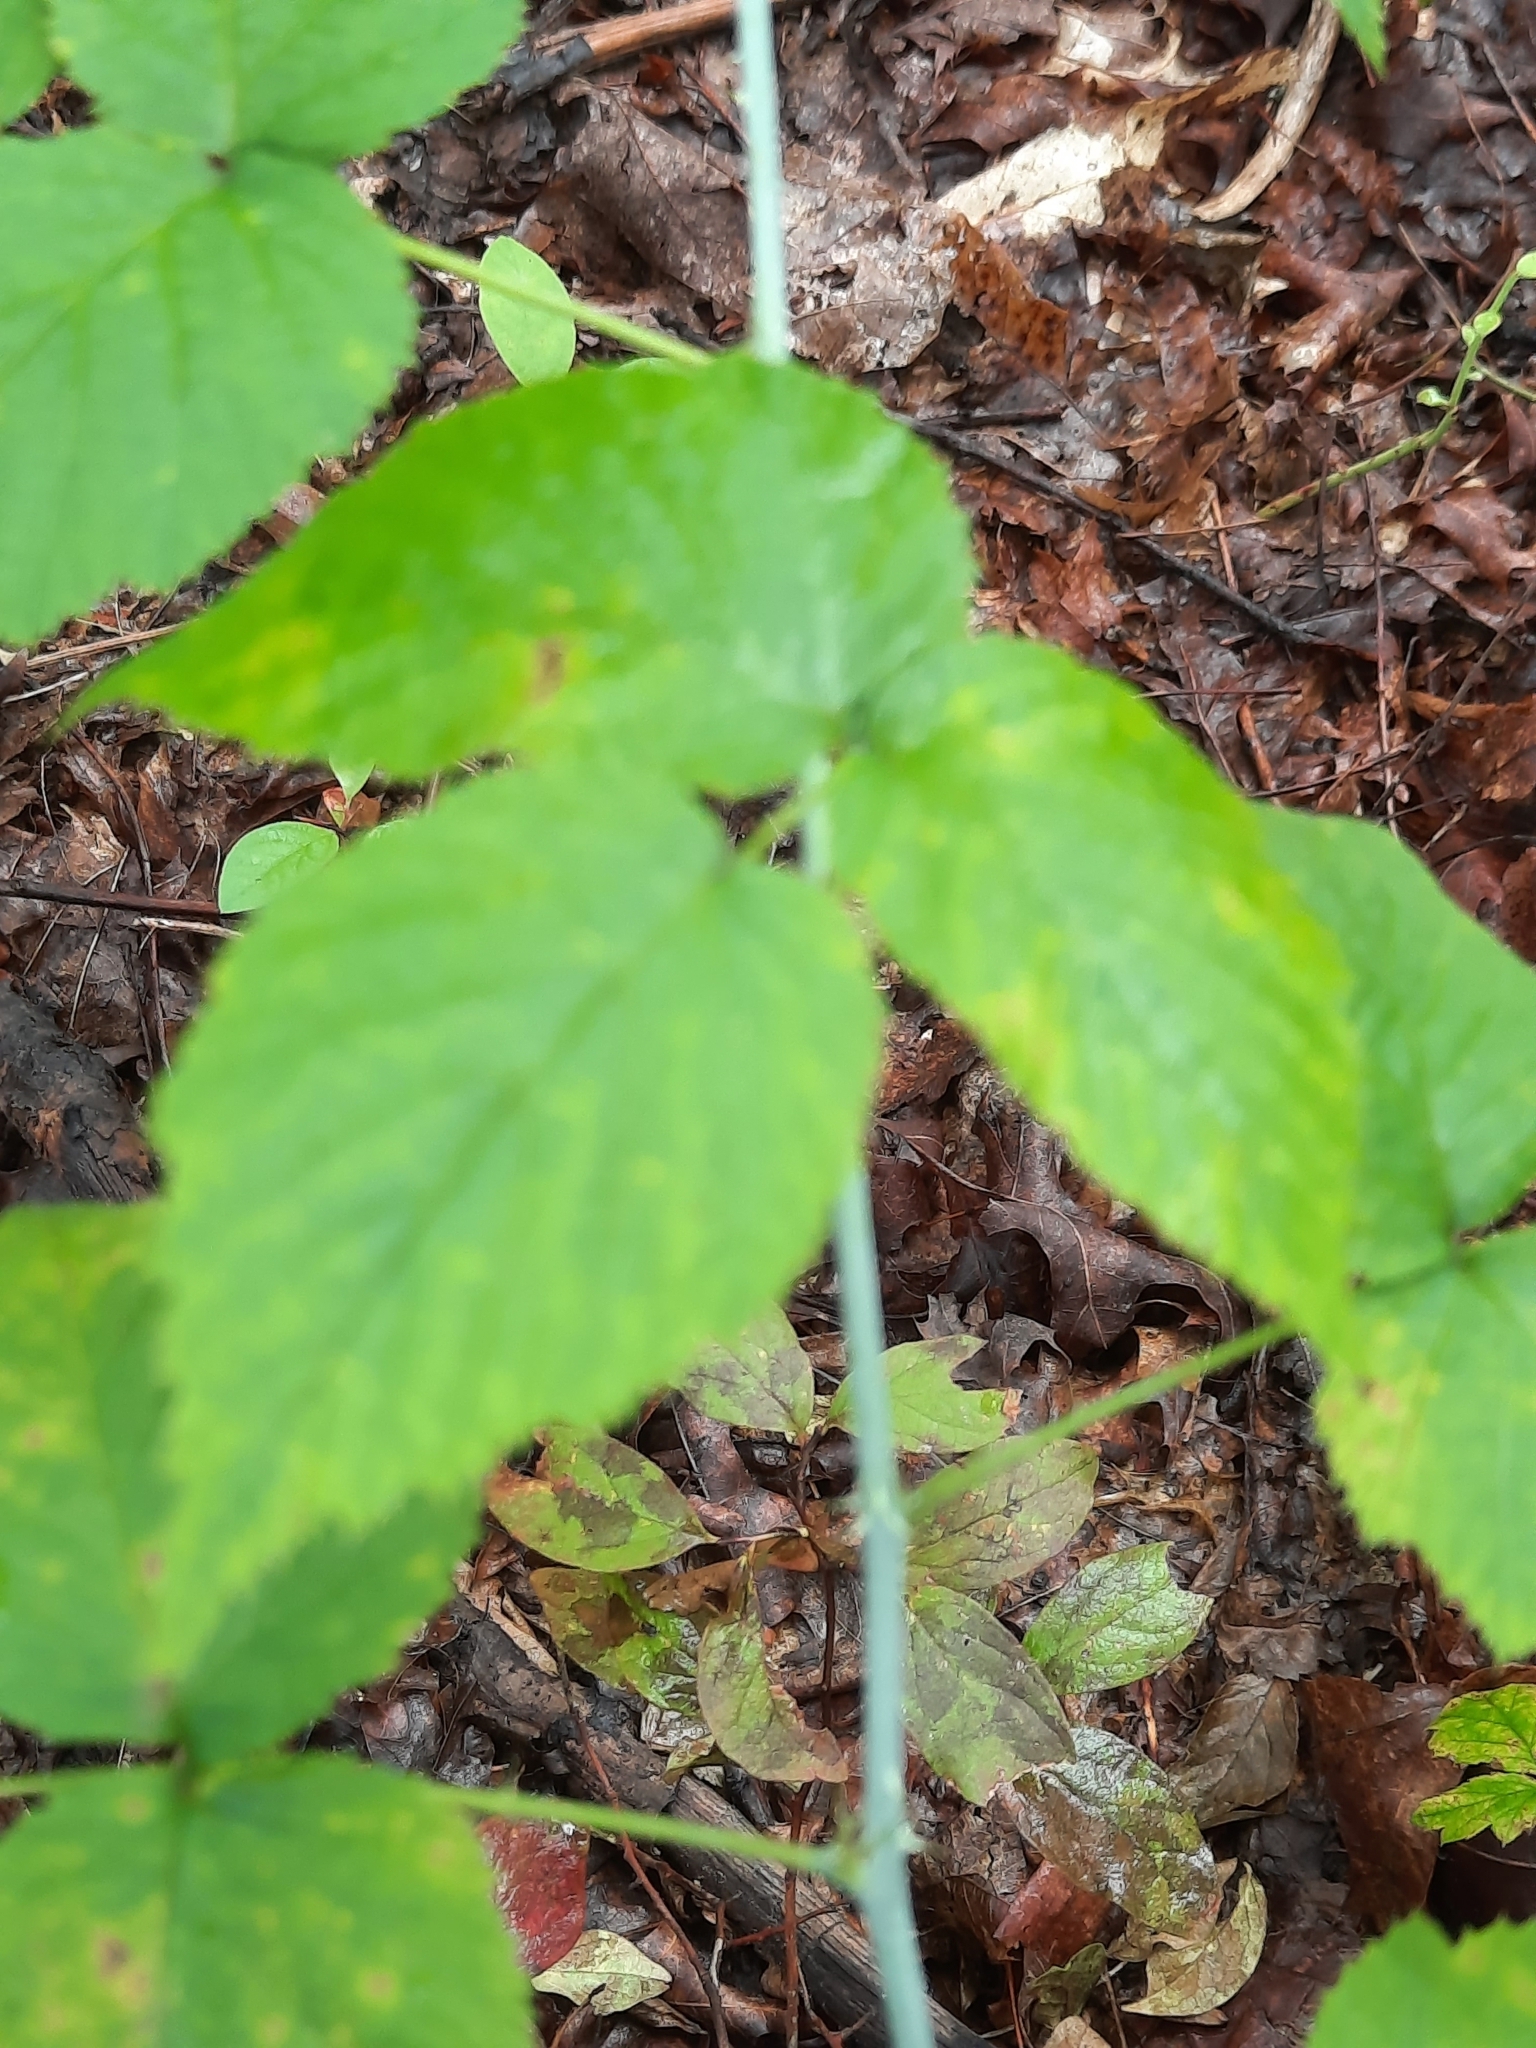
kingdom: Plantae
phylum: Tracheophyta
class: Magnoliopsida
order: Rosales
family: Rosaceae
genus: Rubus
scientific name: Rubus occidentalis
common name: Black raspberry
